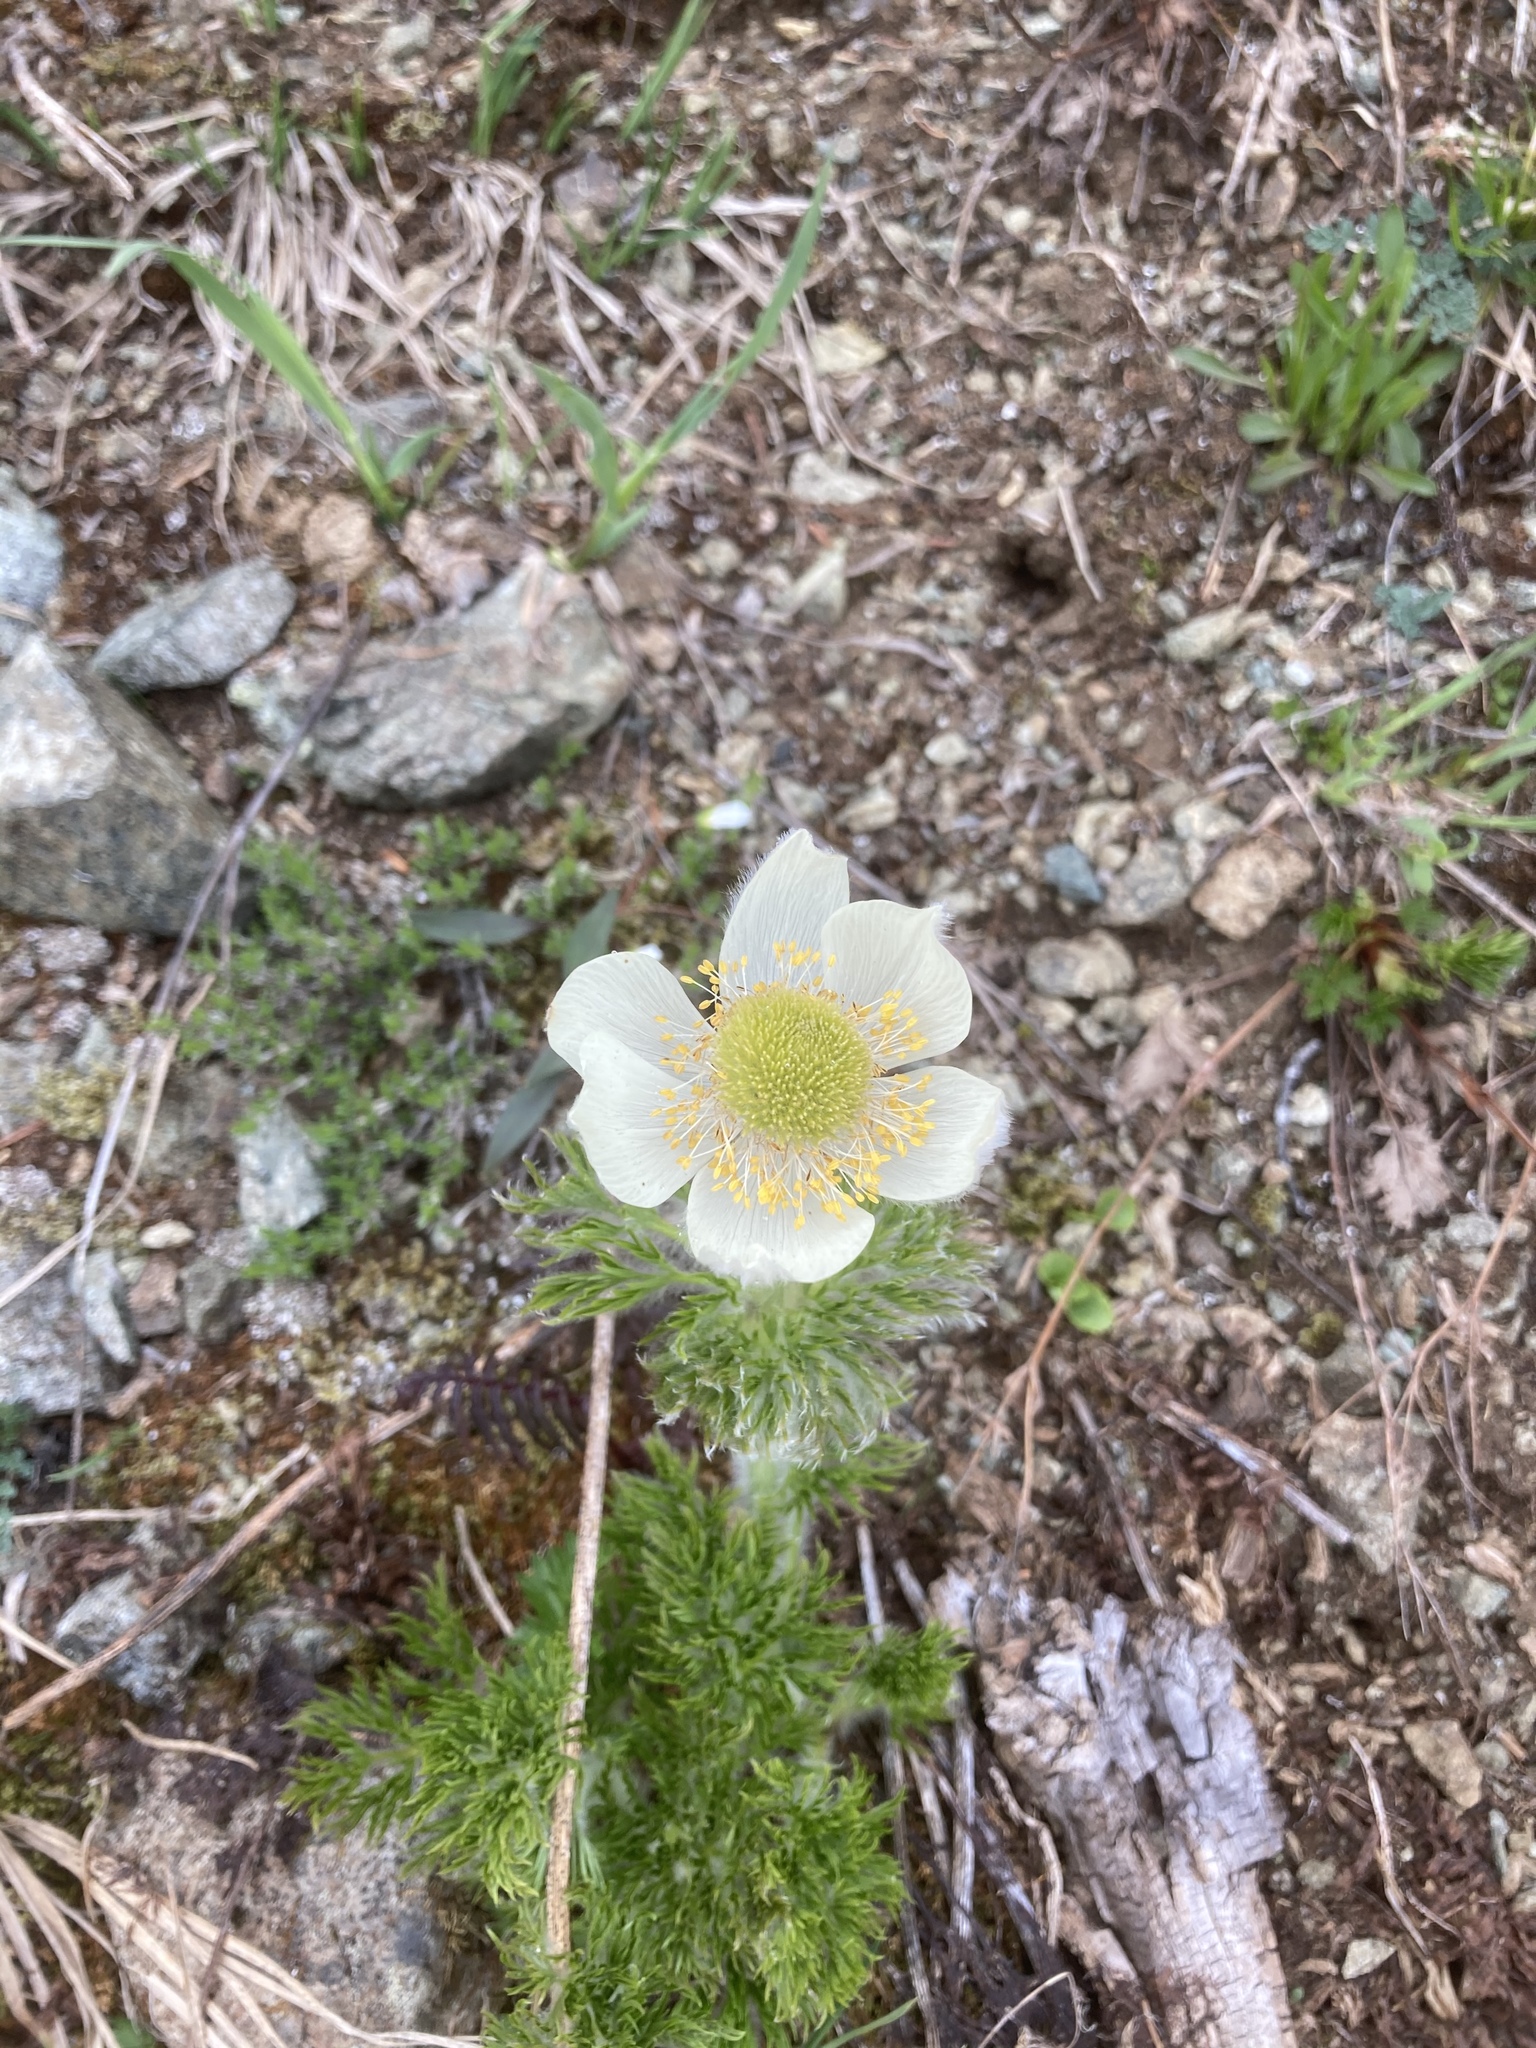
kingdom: Plantae
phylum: Tracheophyta
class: Magnoliopsida
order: Ranunculales
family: Ranunculaceae
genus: Pulsatilla
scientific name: Pulsatilla occidentalis
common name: Mountain pasqueflower
